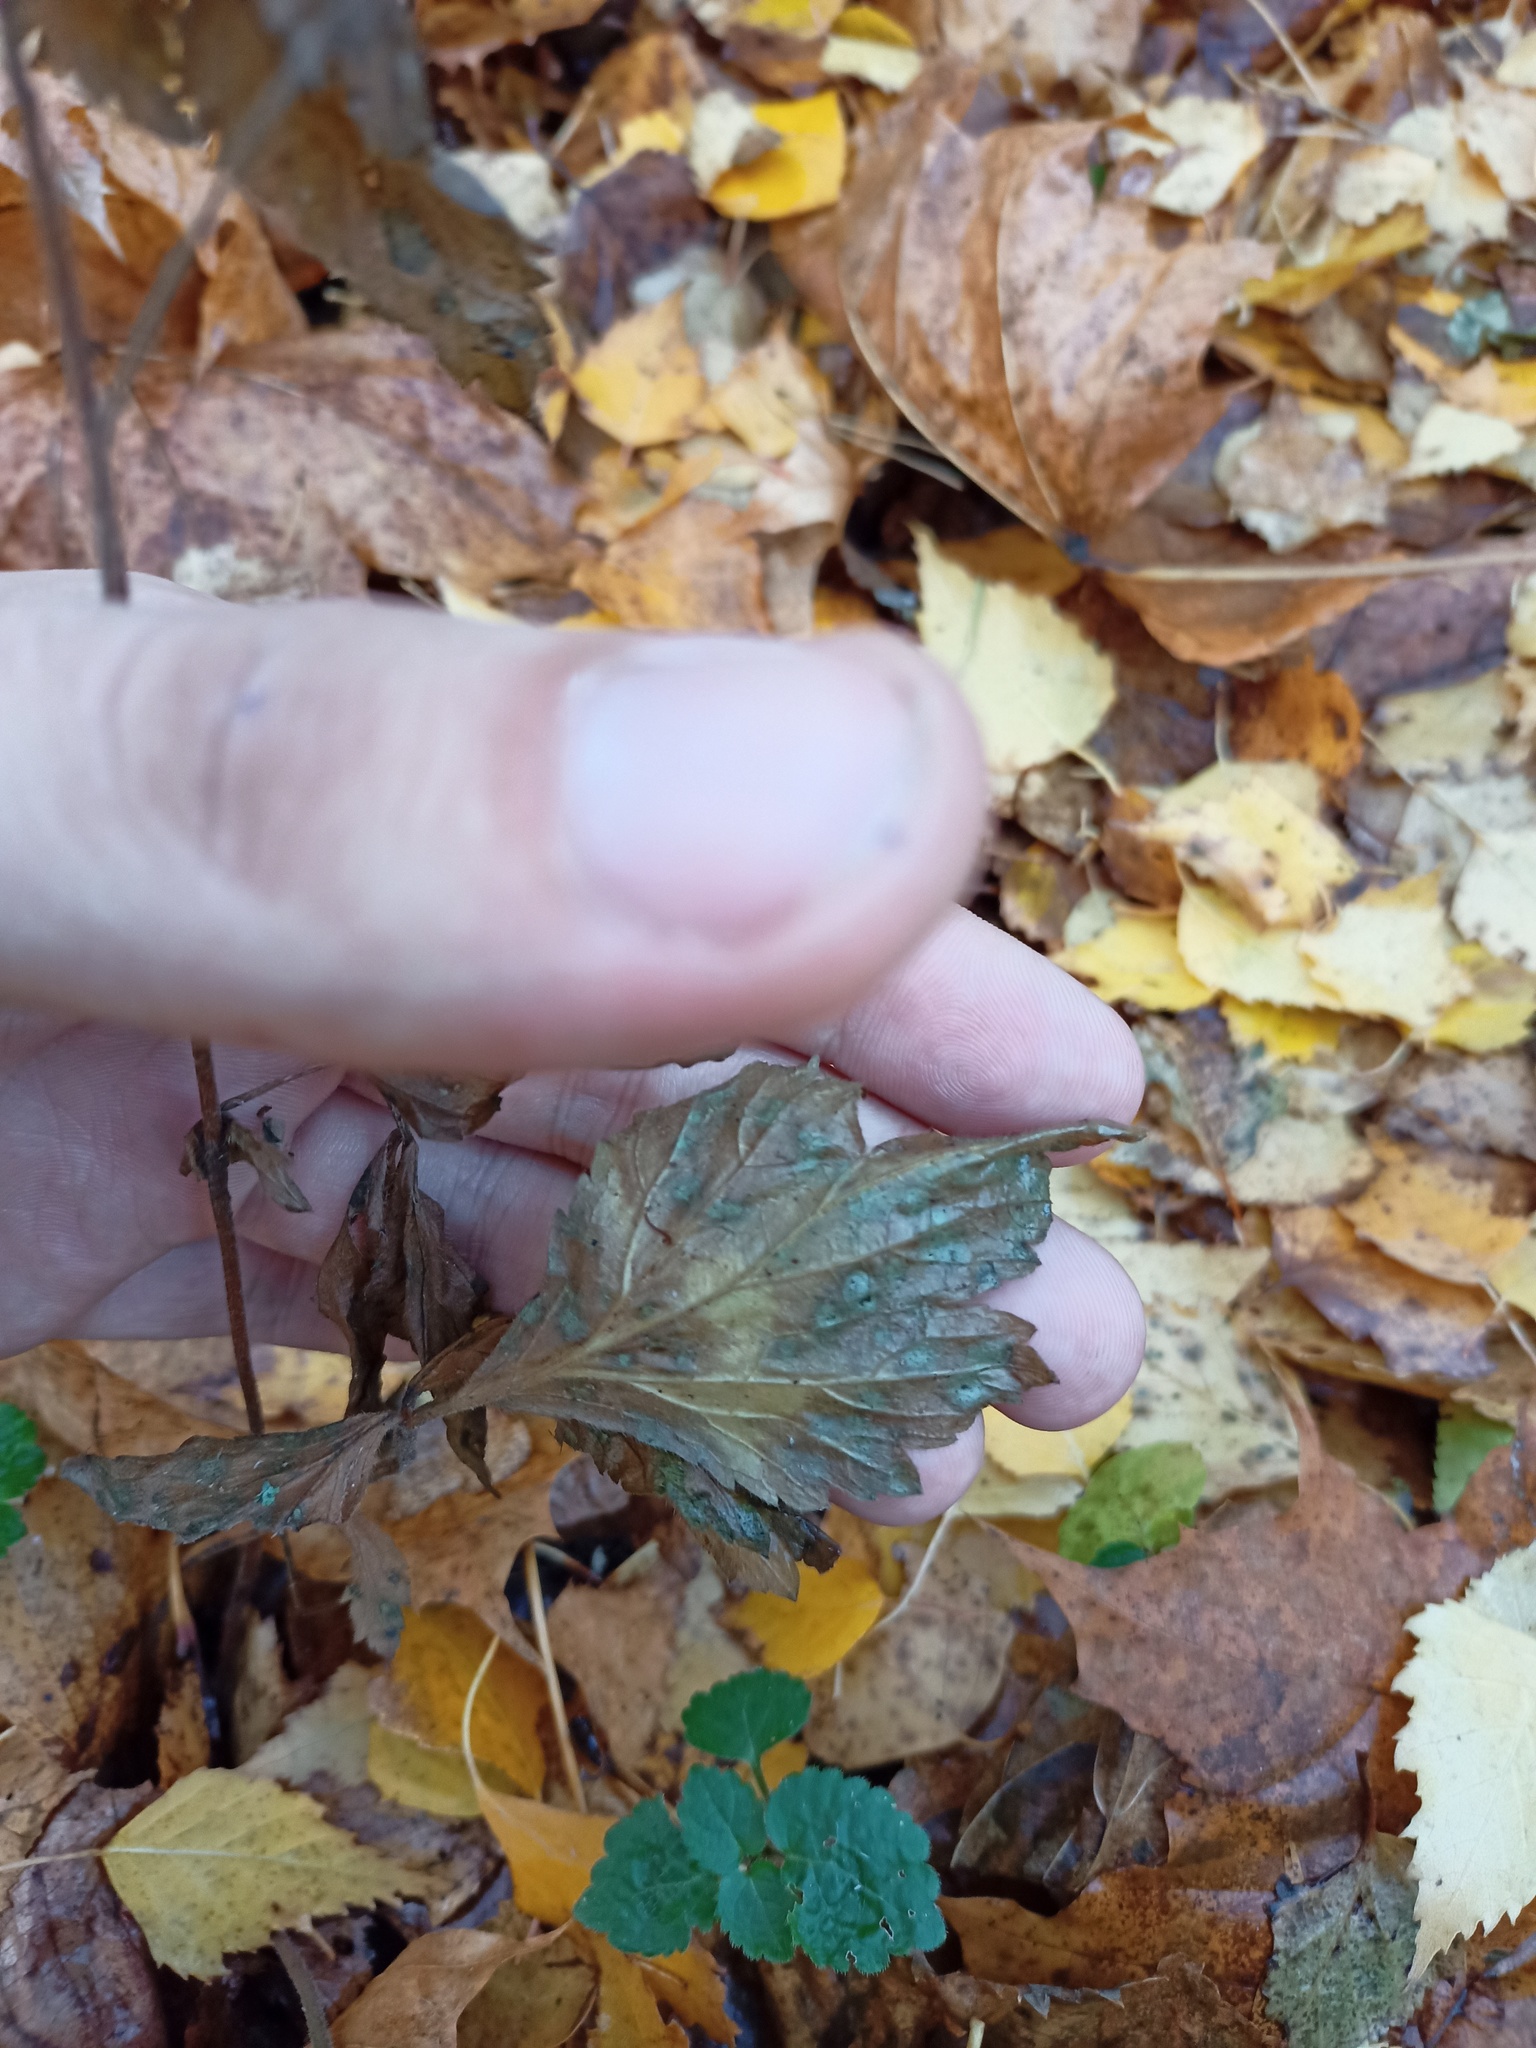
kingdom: Plantae
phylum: Tracheophyta
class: Magnoliopsida
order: Rosales
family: Rosaceae
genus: Geum
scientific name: Geum urbanum
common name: Wood avens
